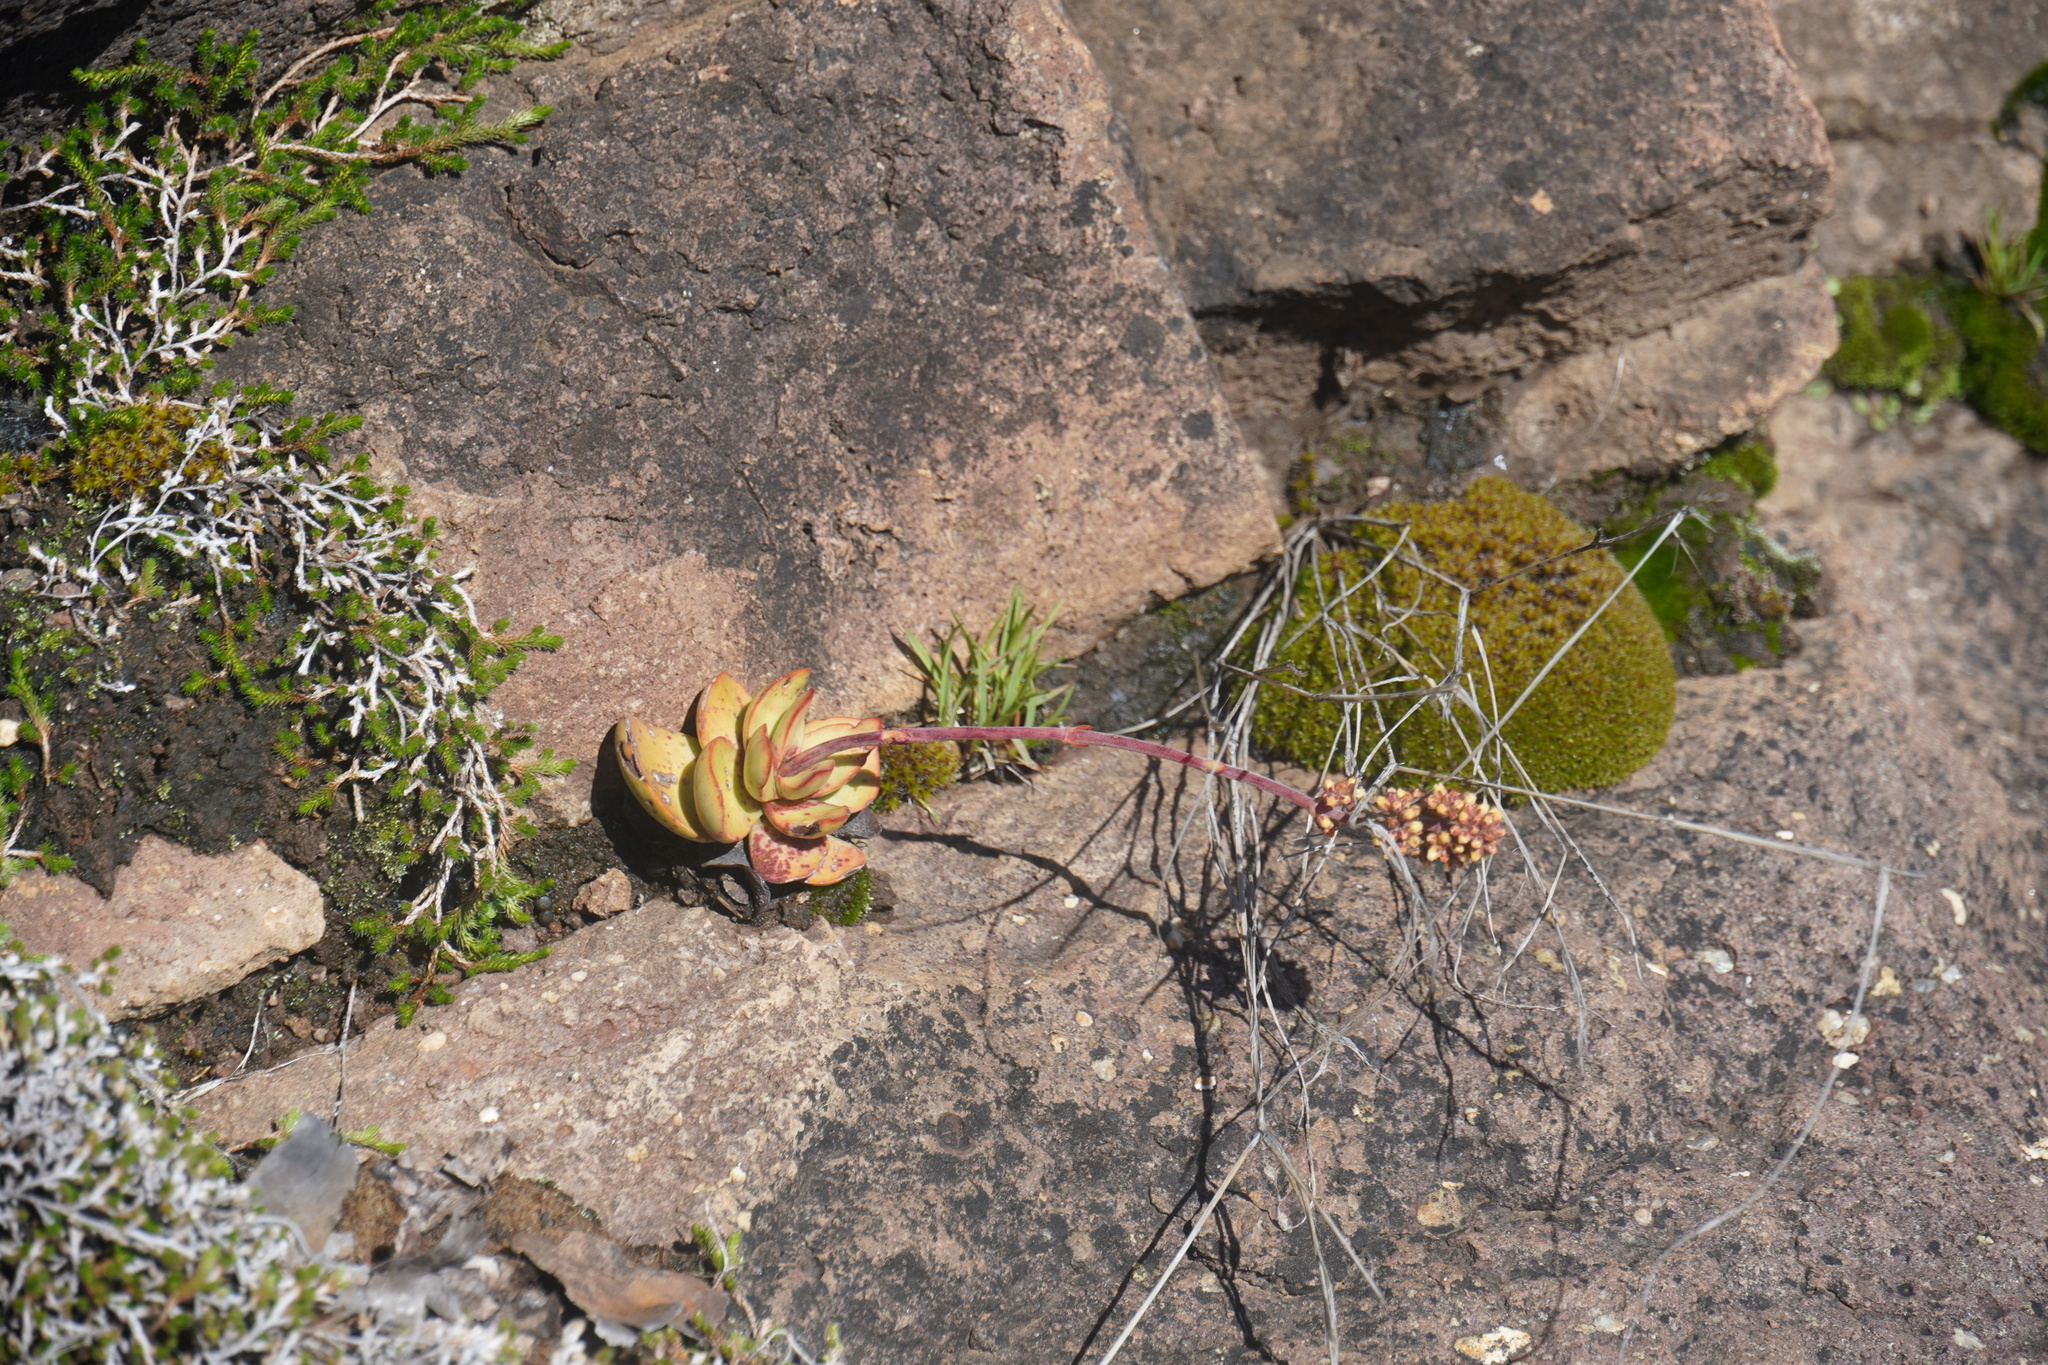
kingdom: Plantae
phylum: Tracheophyta
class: Magnoliopsida
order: Saxifragales
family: Crassulaceae
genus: Crassula
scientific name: Crassula nudicaulis
